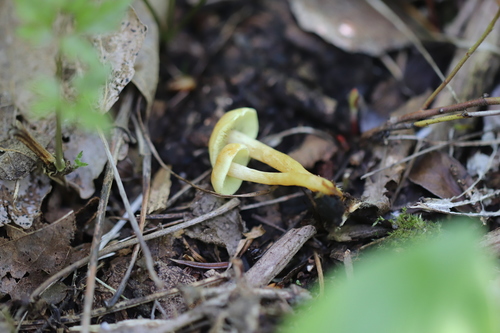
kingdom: Fungi
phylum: Basidiomycota
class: Agaricomycetes
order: Agaricales
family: Strophariaceae
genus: Hypholoma
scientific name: Hypholoma fasciculare
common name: Sulphur tuft
